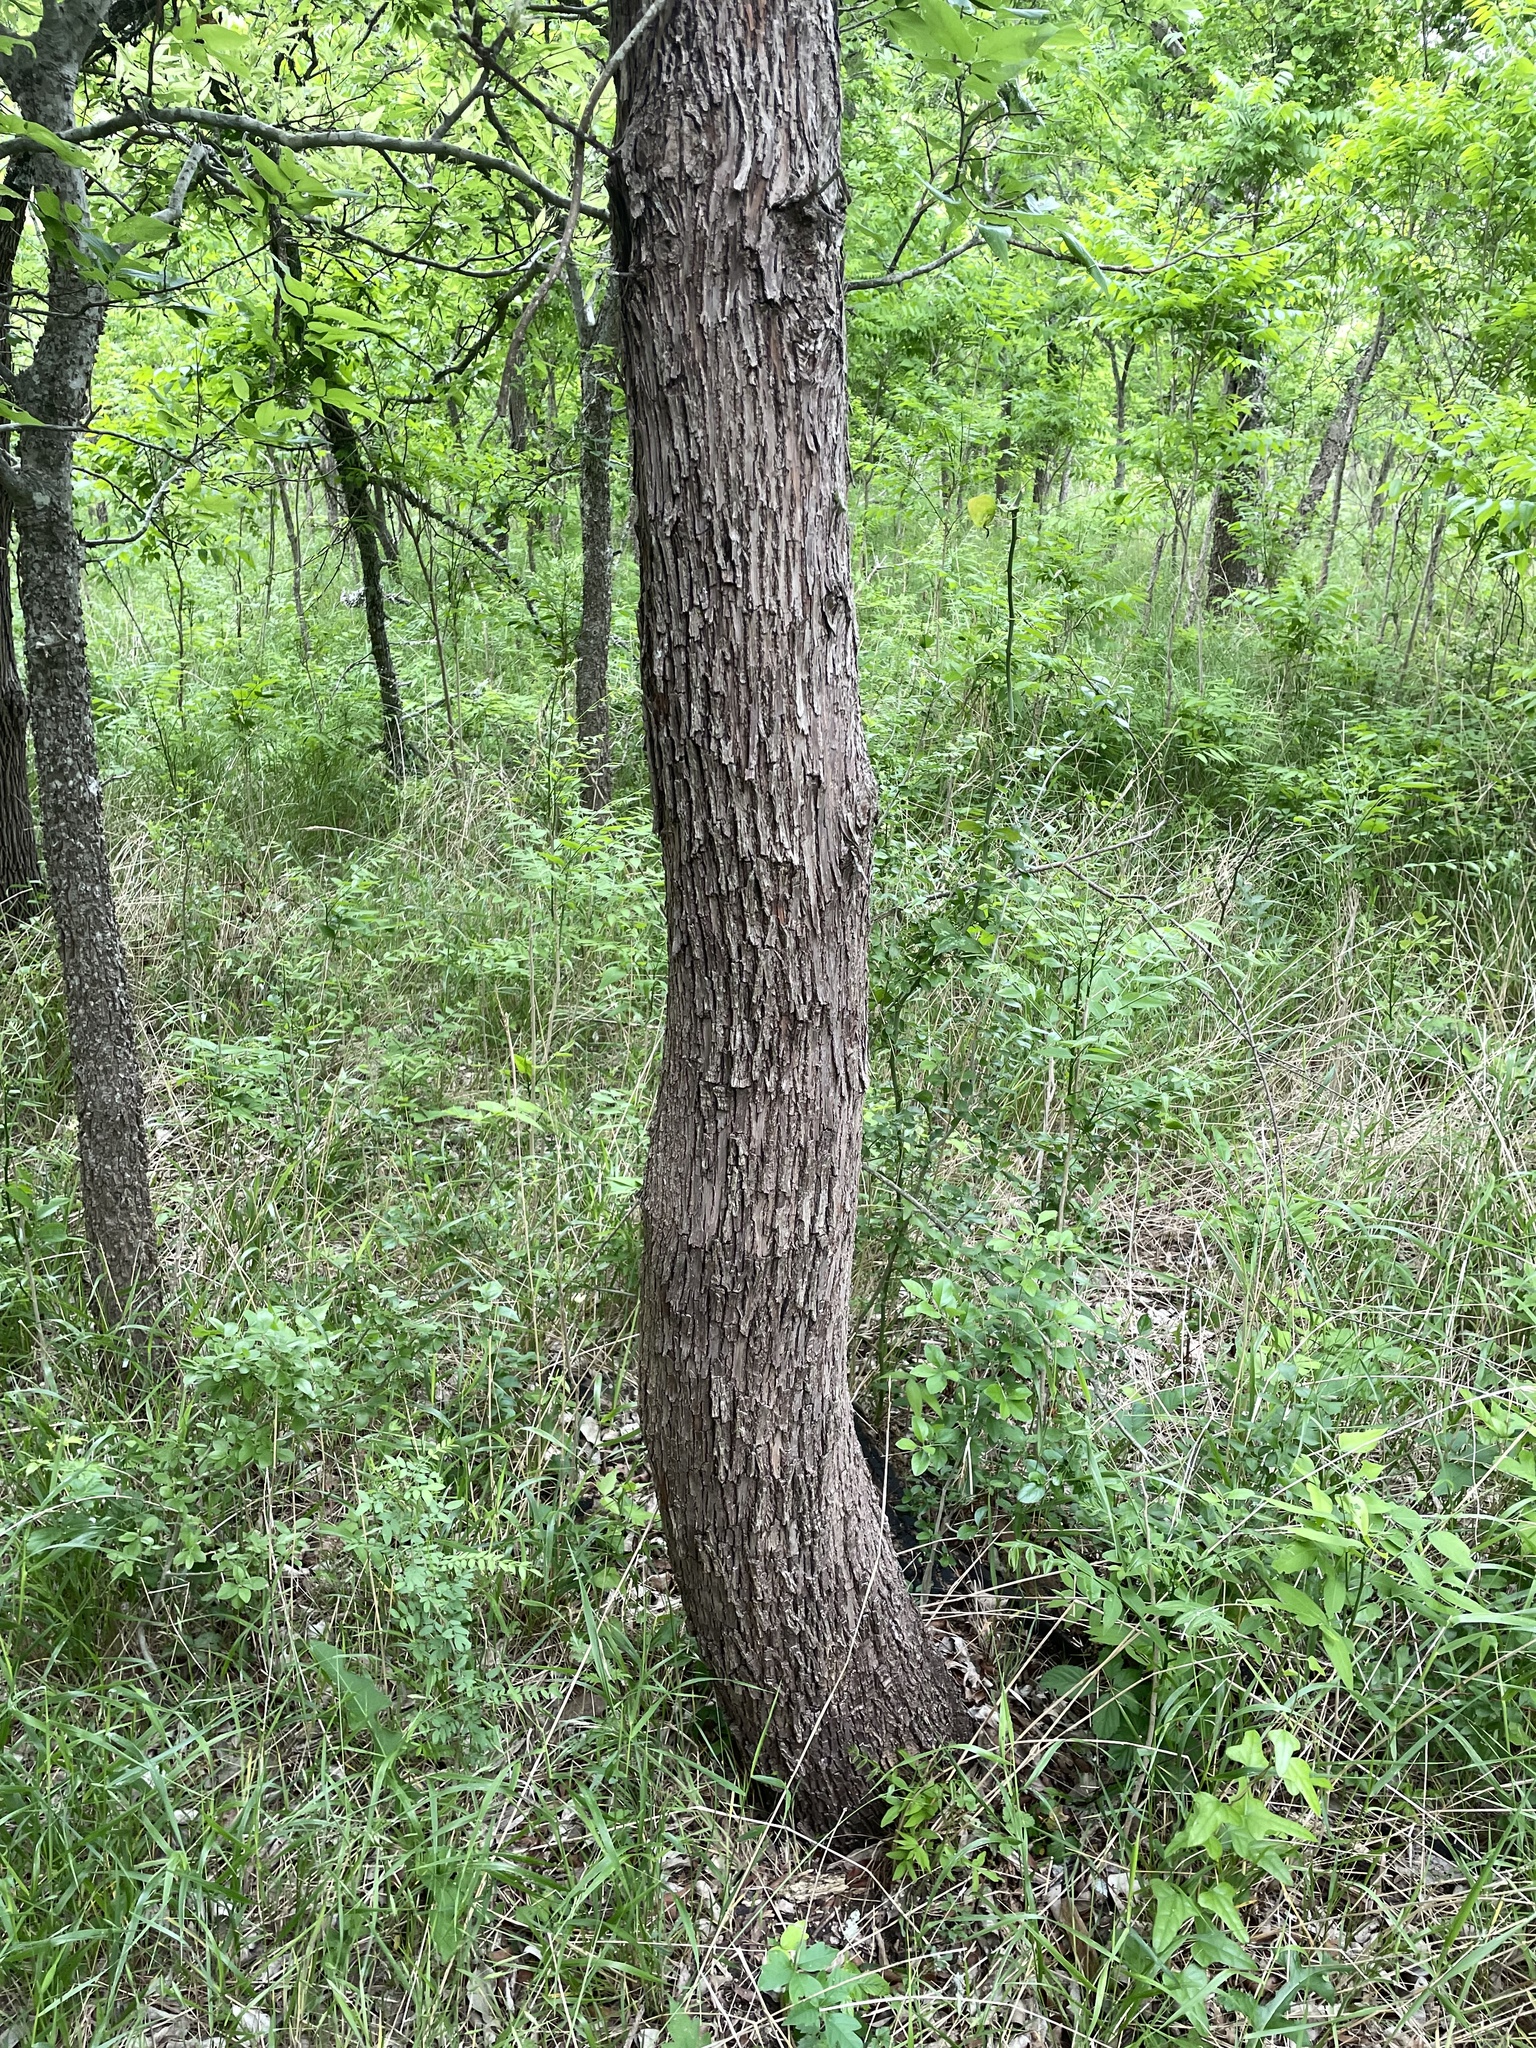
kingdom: Plantae
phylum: Tracheophyta
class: Magnoliopsida
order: Ericales
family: Sapotaceae
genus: Sideroxylon
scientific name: Sideroxylon lanuginosum
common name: Chittamwood
